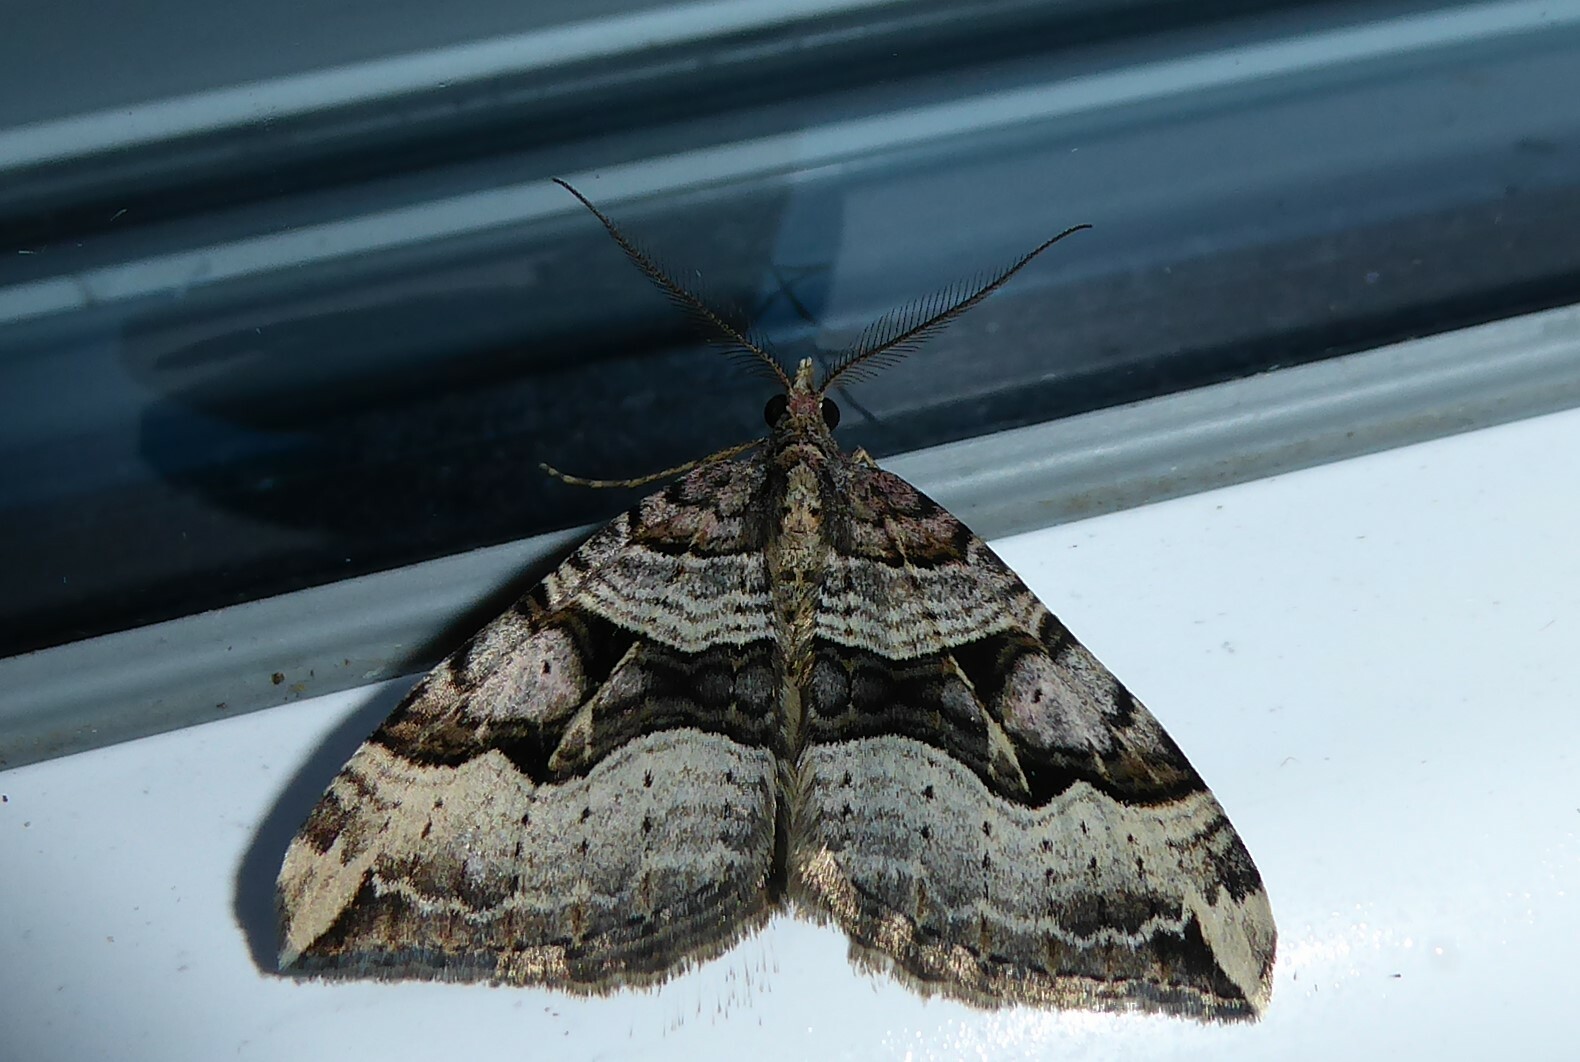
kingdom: Animalia
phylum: Arthropoda
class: Insecta
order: Lepidoptera
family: Geometridae
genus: Xanthorhoe
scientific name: Xanthorhoe semifissata
